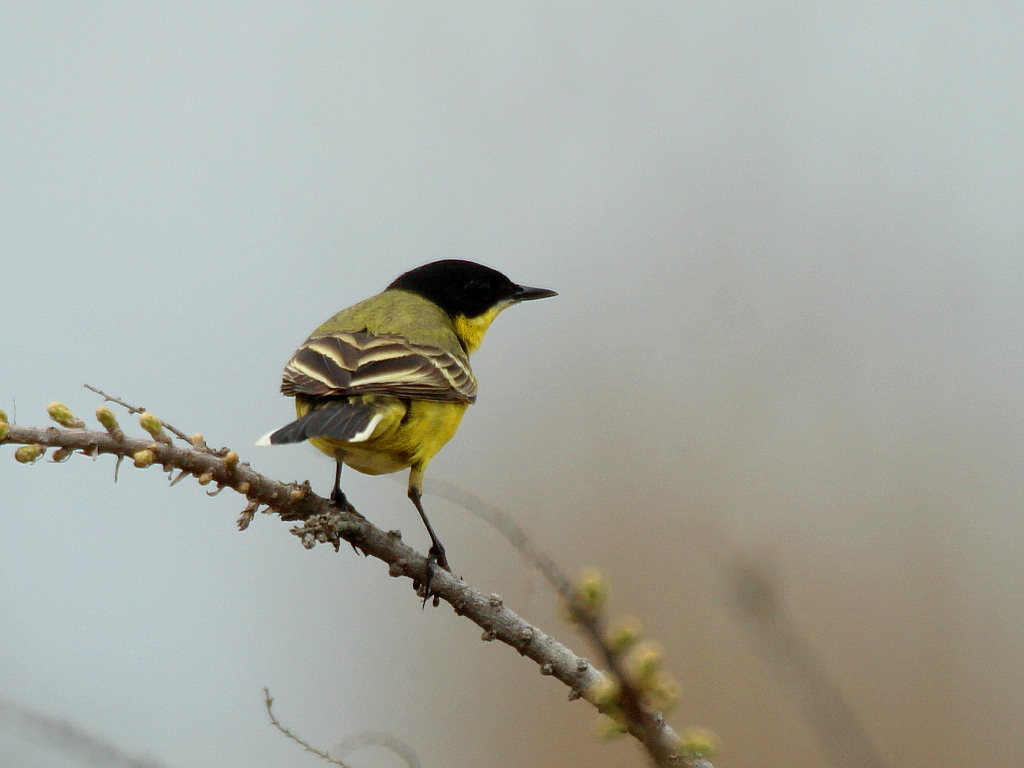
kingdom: Animalia
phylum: Chordata
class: Aves
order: Passeriformes
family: Motacillidae
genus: Motacilla
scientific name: Motacilla flava
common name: Western yellow wagtail
